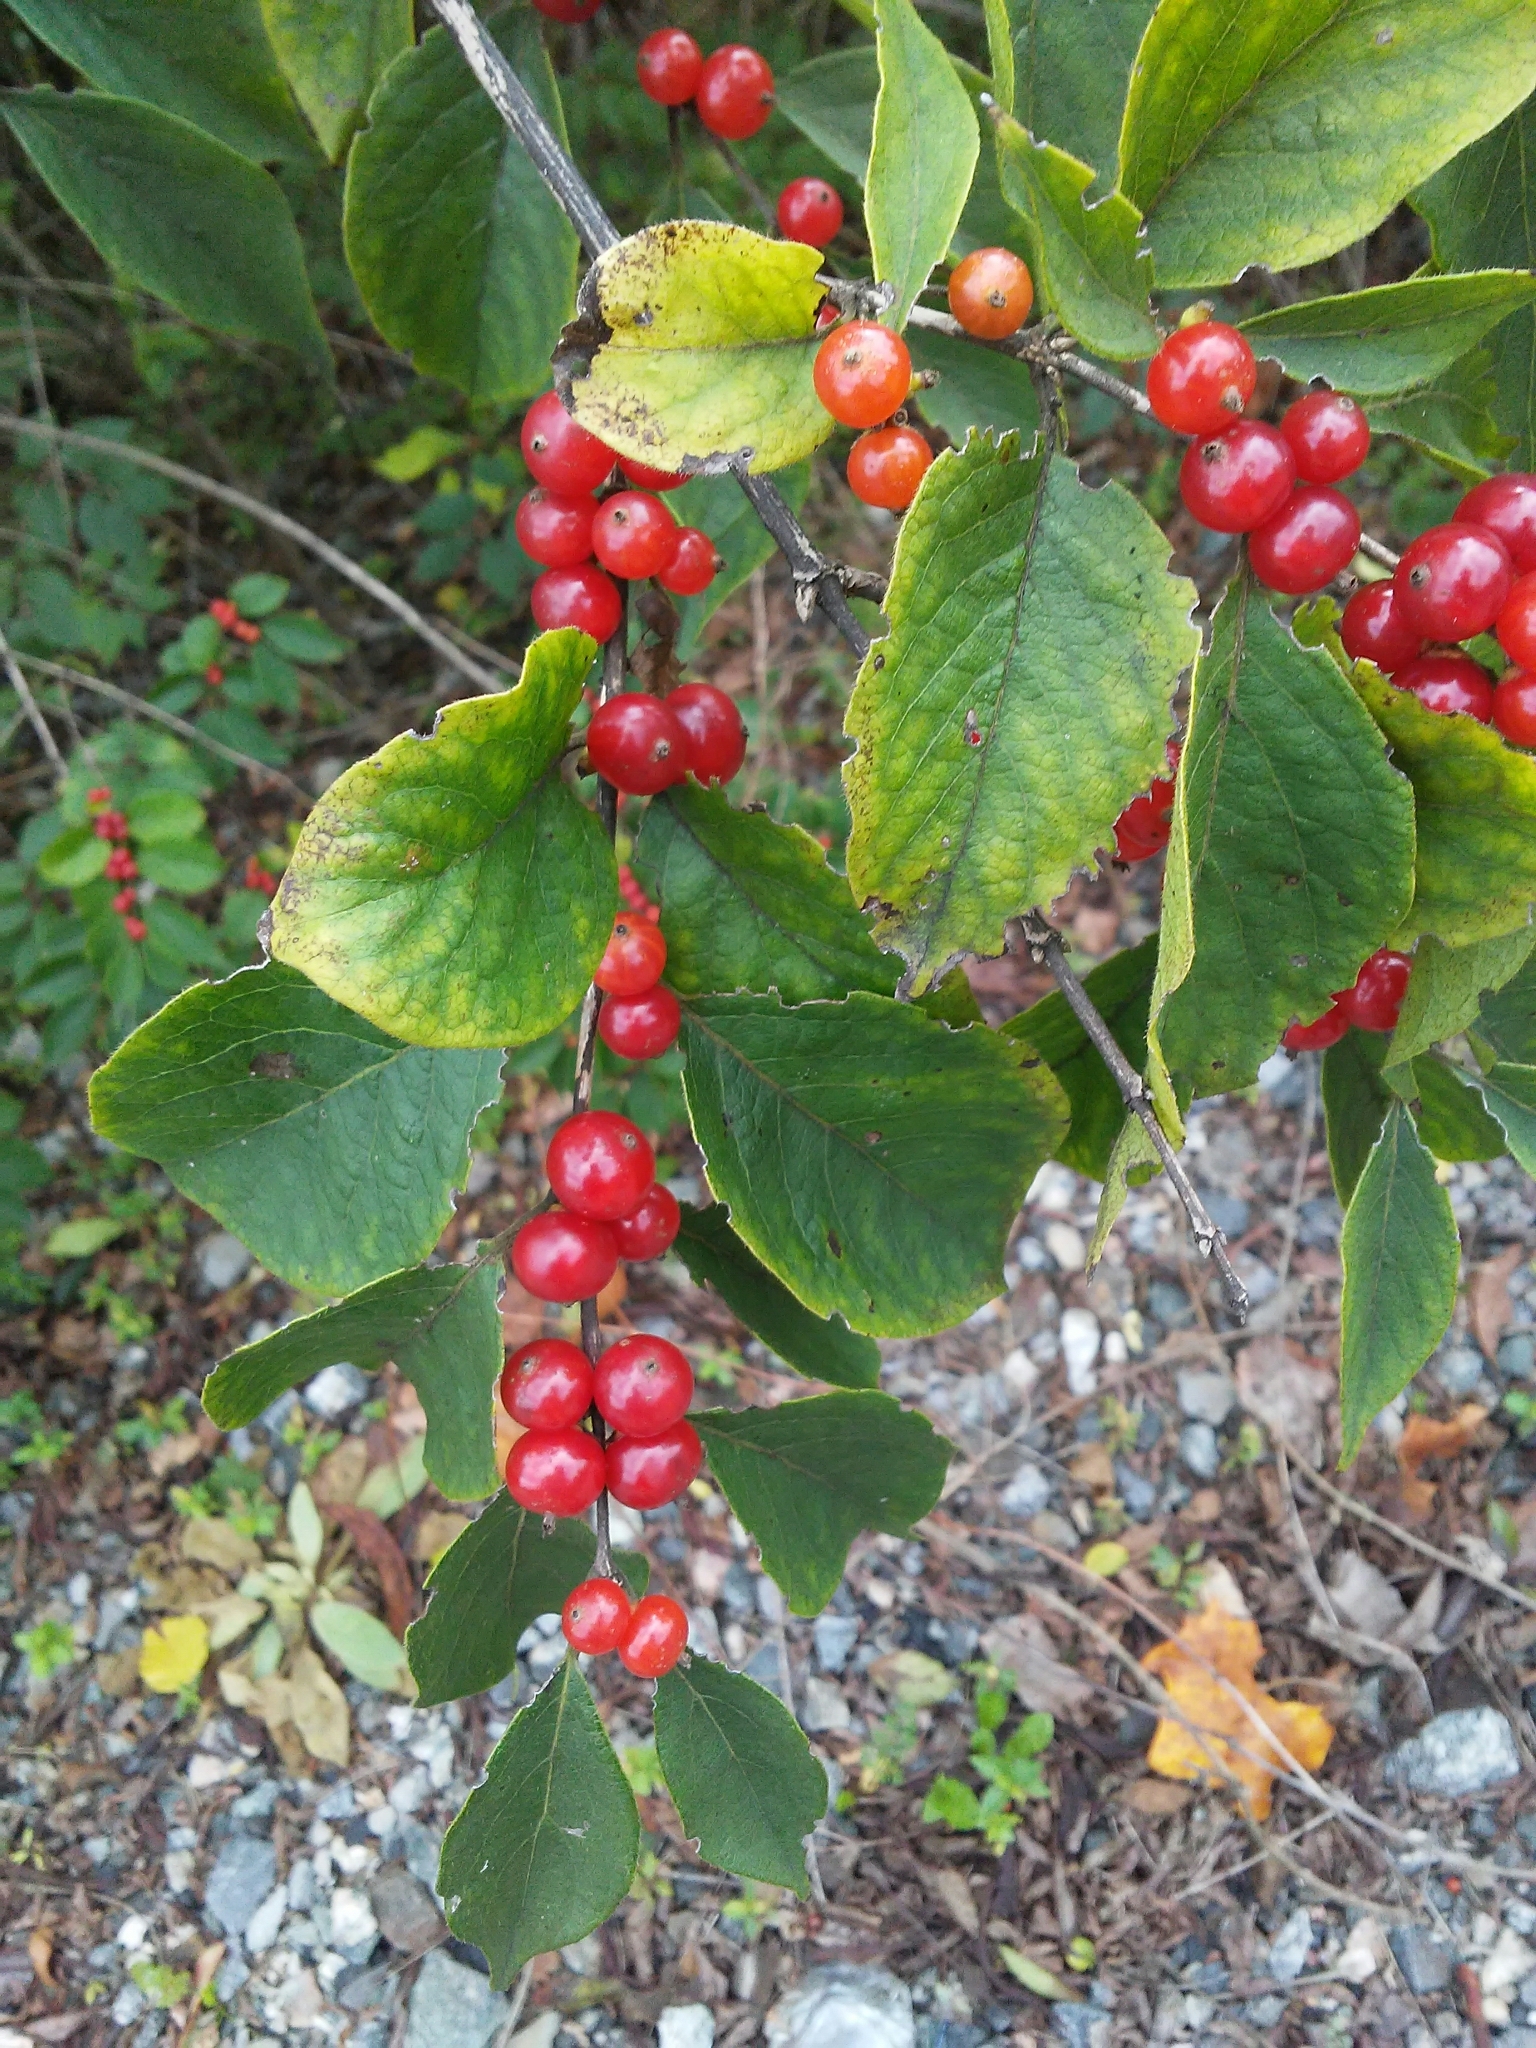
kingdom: Plantae
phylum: Tracheophyta
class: Magnoliopsida
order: Dipsacales
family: Caprifoliaceae
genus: Lonicera
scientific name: Lonicera maackii
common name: Amur honeysuckle
